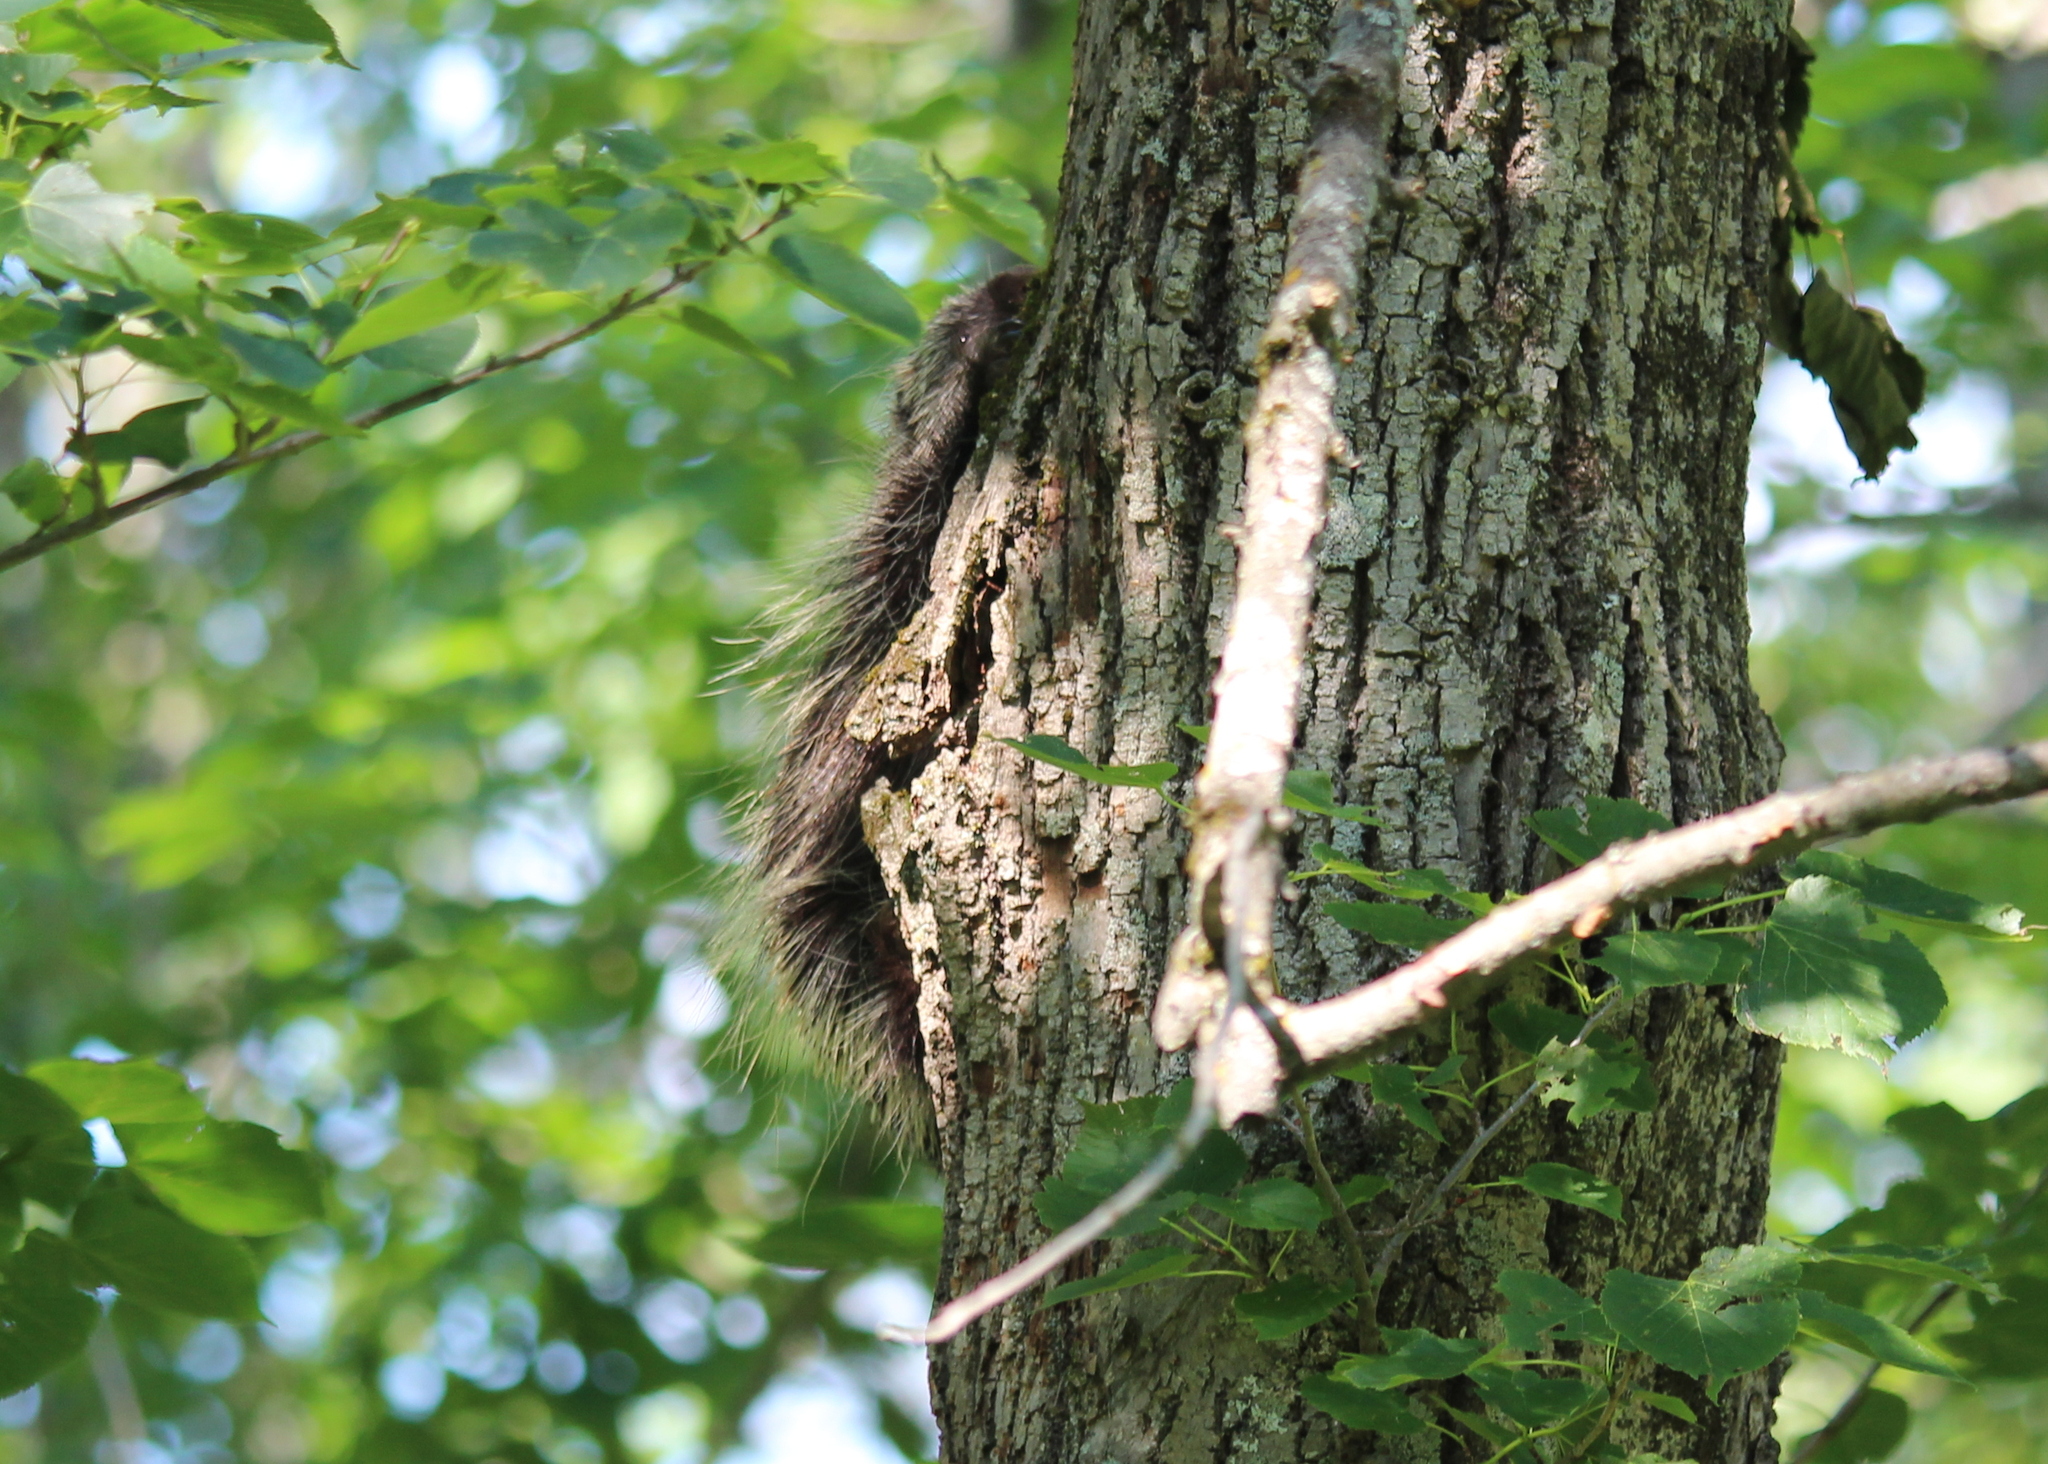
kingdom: Animalia
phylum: Chordata
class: Mammalia
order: Rodentia
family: Erethizontidae
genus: Erethizon
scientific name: Erethizon dorsatus
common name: North american porcupine
